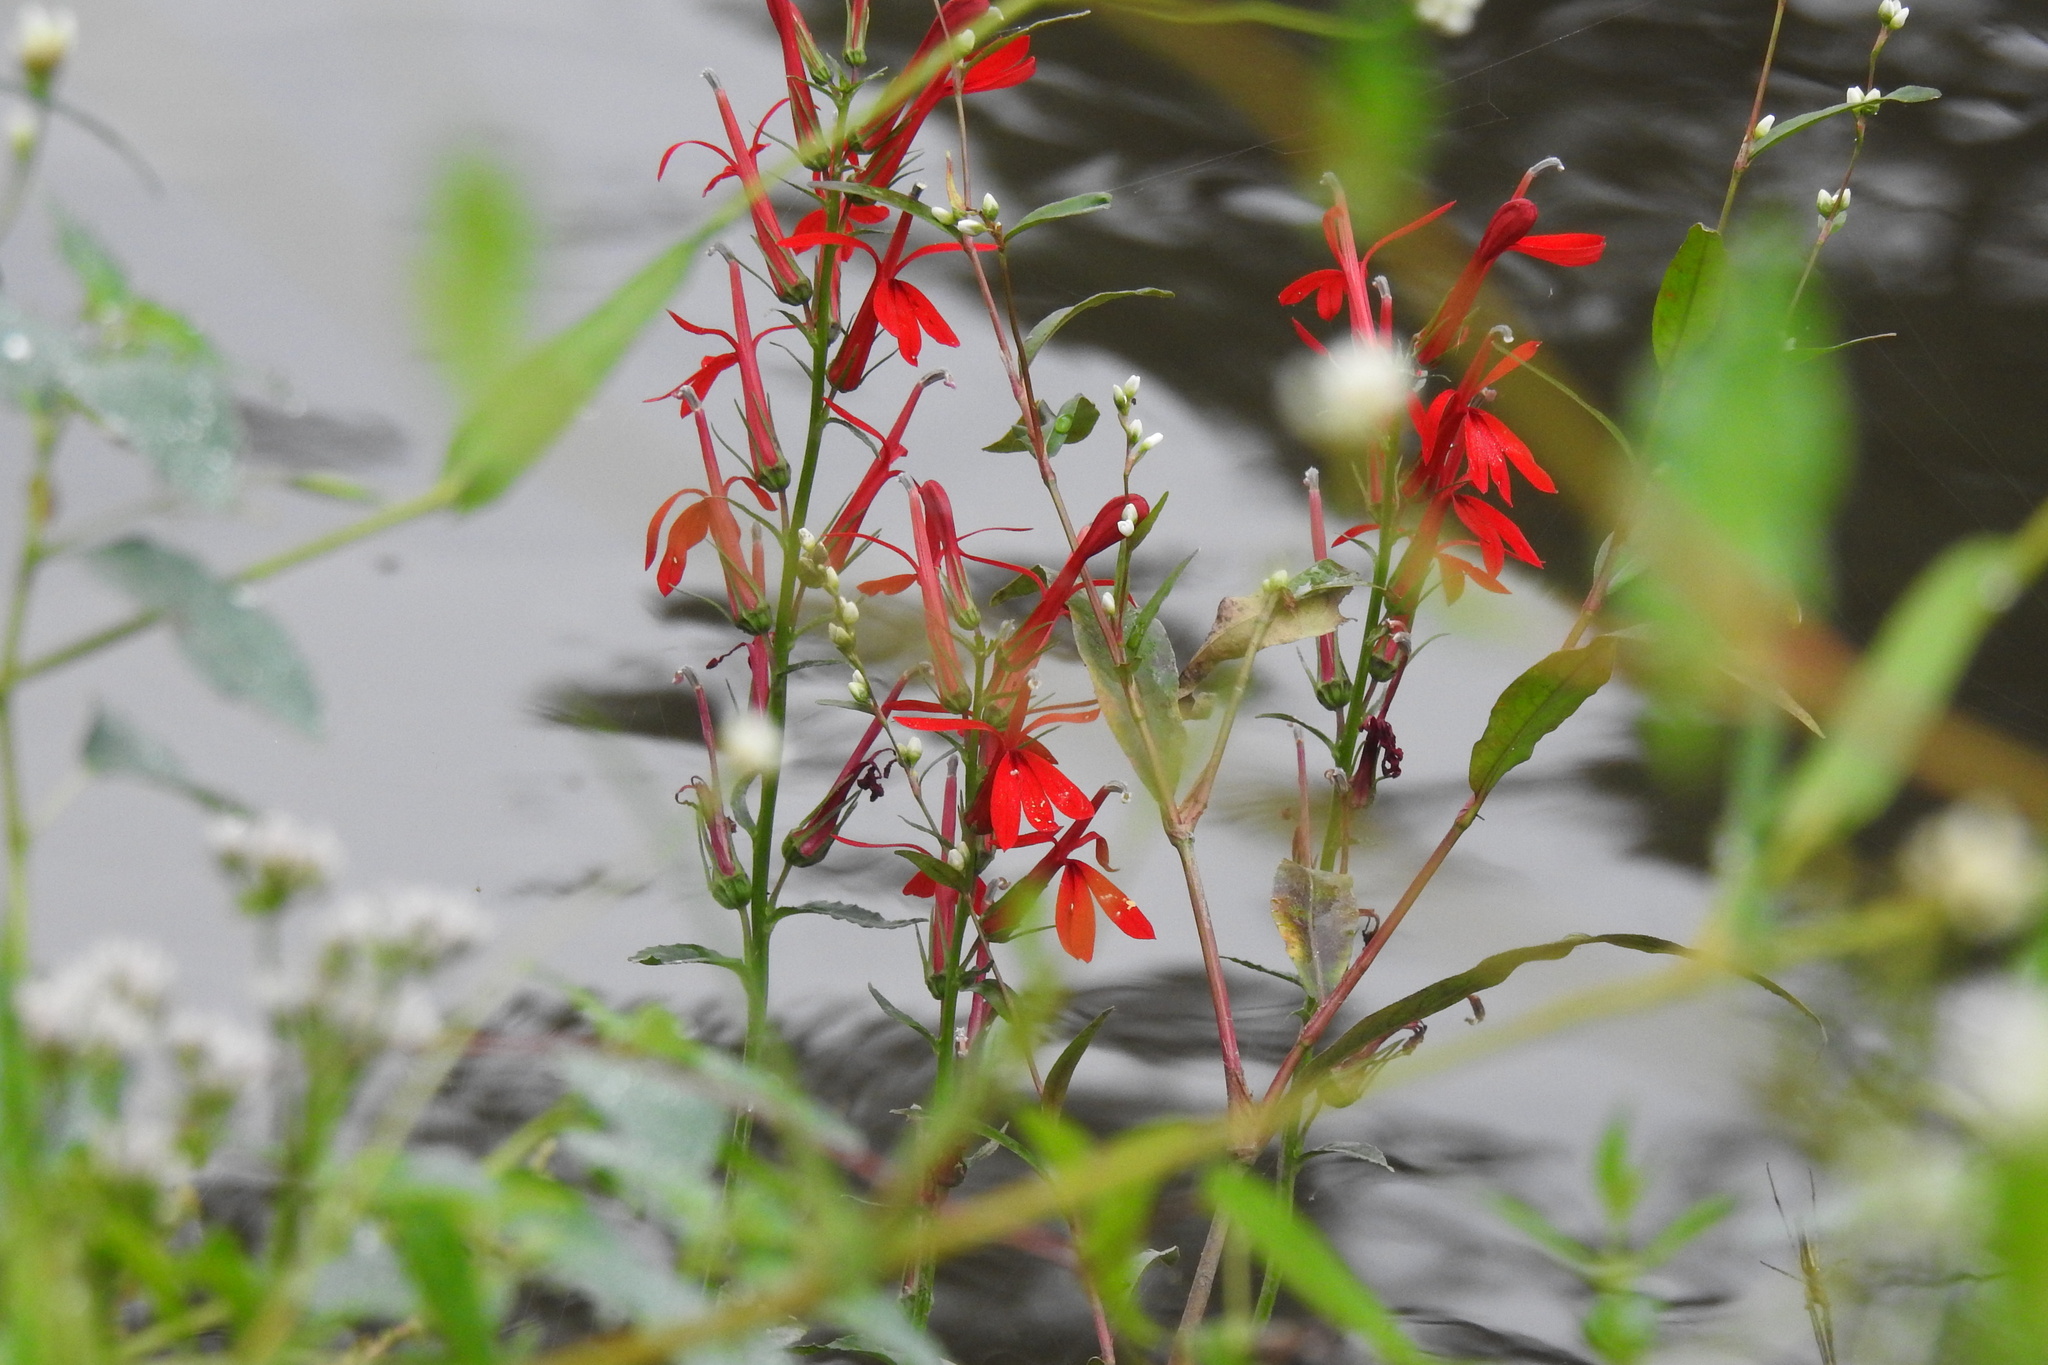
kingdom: Plantae
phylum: Tracheophyta
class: Magnoliopsida
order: Asterales
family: Campanulaceae
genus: Lobelia
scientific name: Lobelia cardinalis
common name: Cardinal flower
